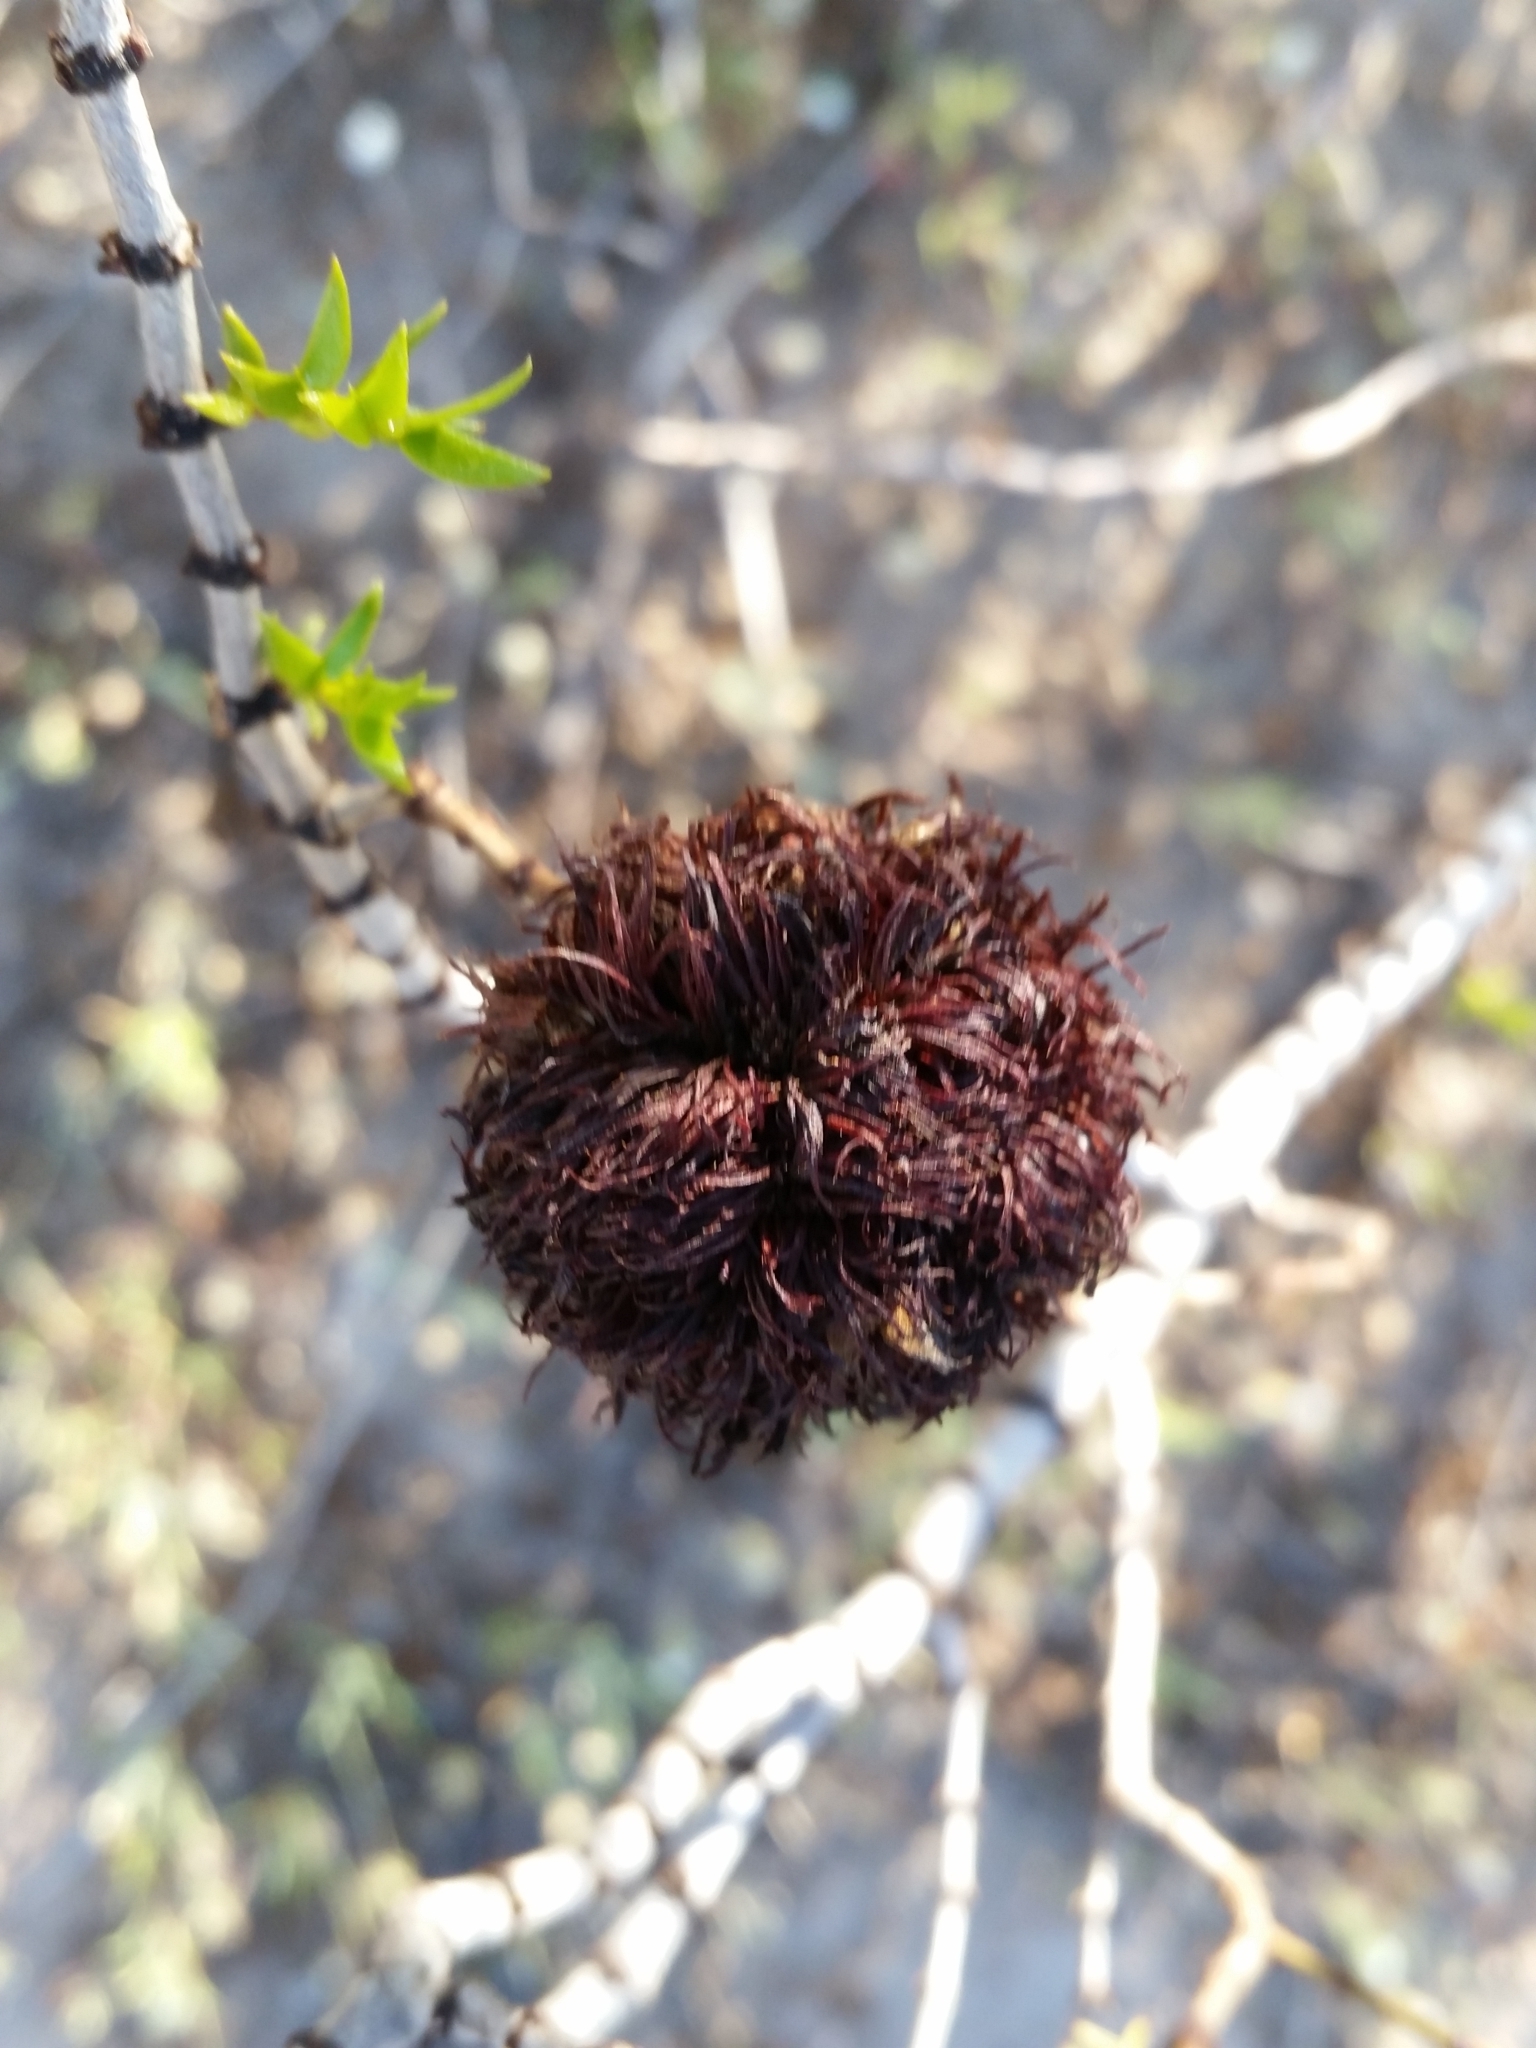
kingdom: Animalia
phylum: Arthropoda
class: Insecta
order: Diptera
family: Cecidomyiidae
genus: Asphondylia
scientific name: Asphondylia auripila
